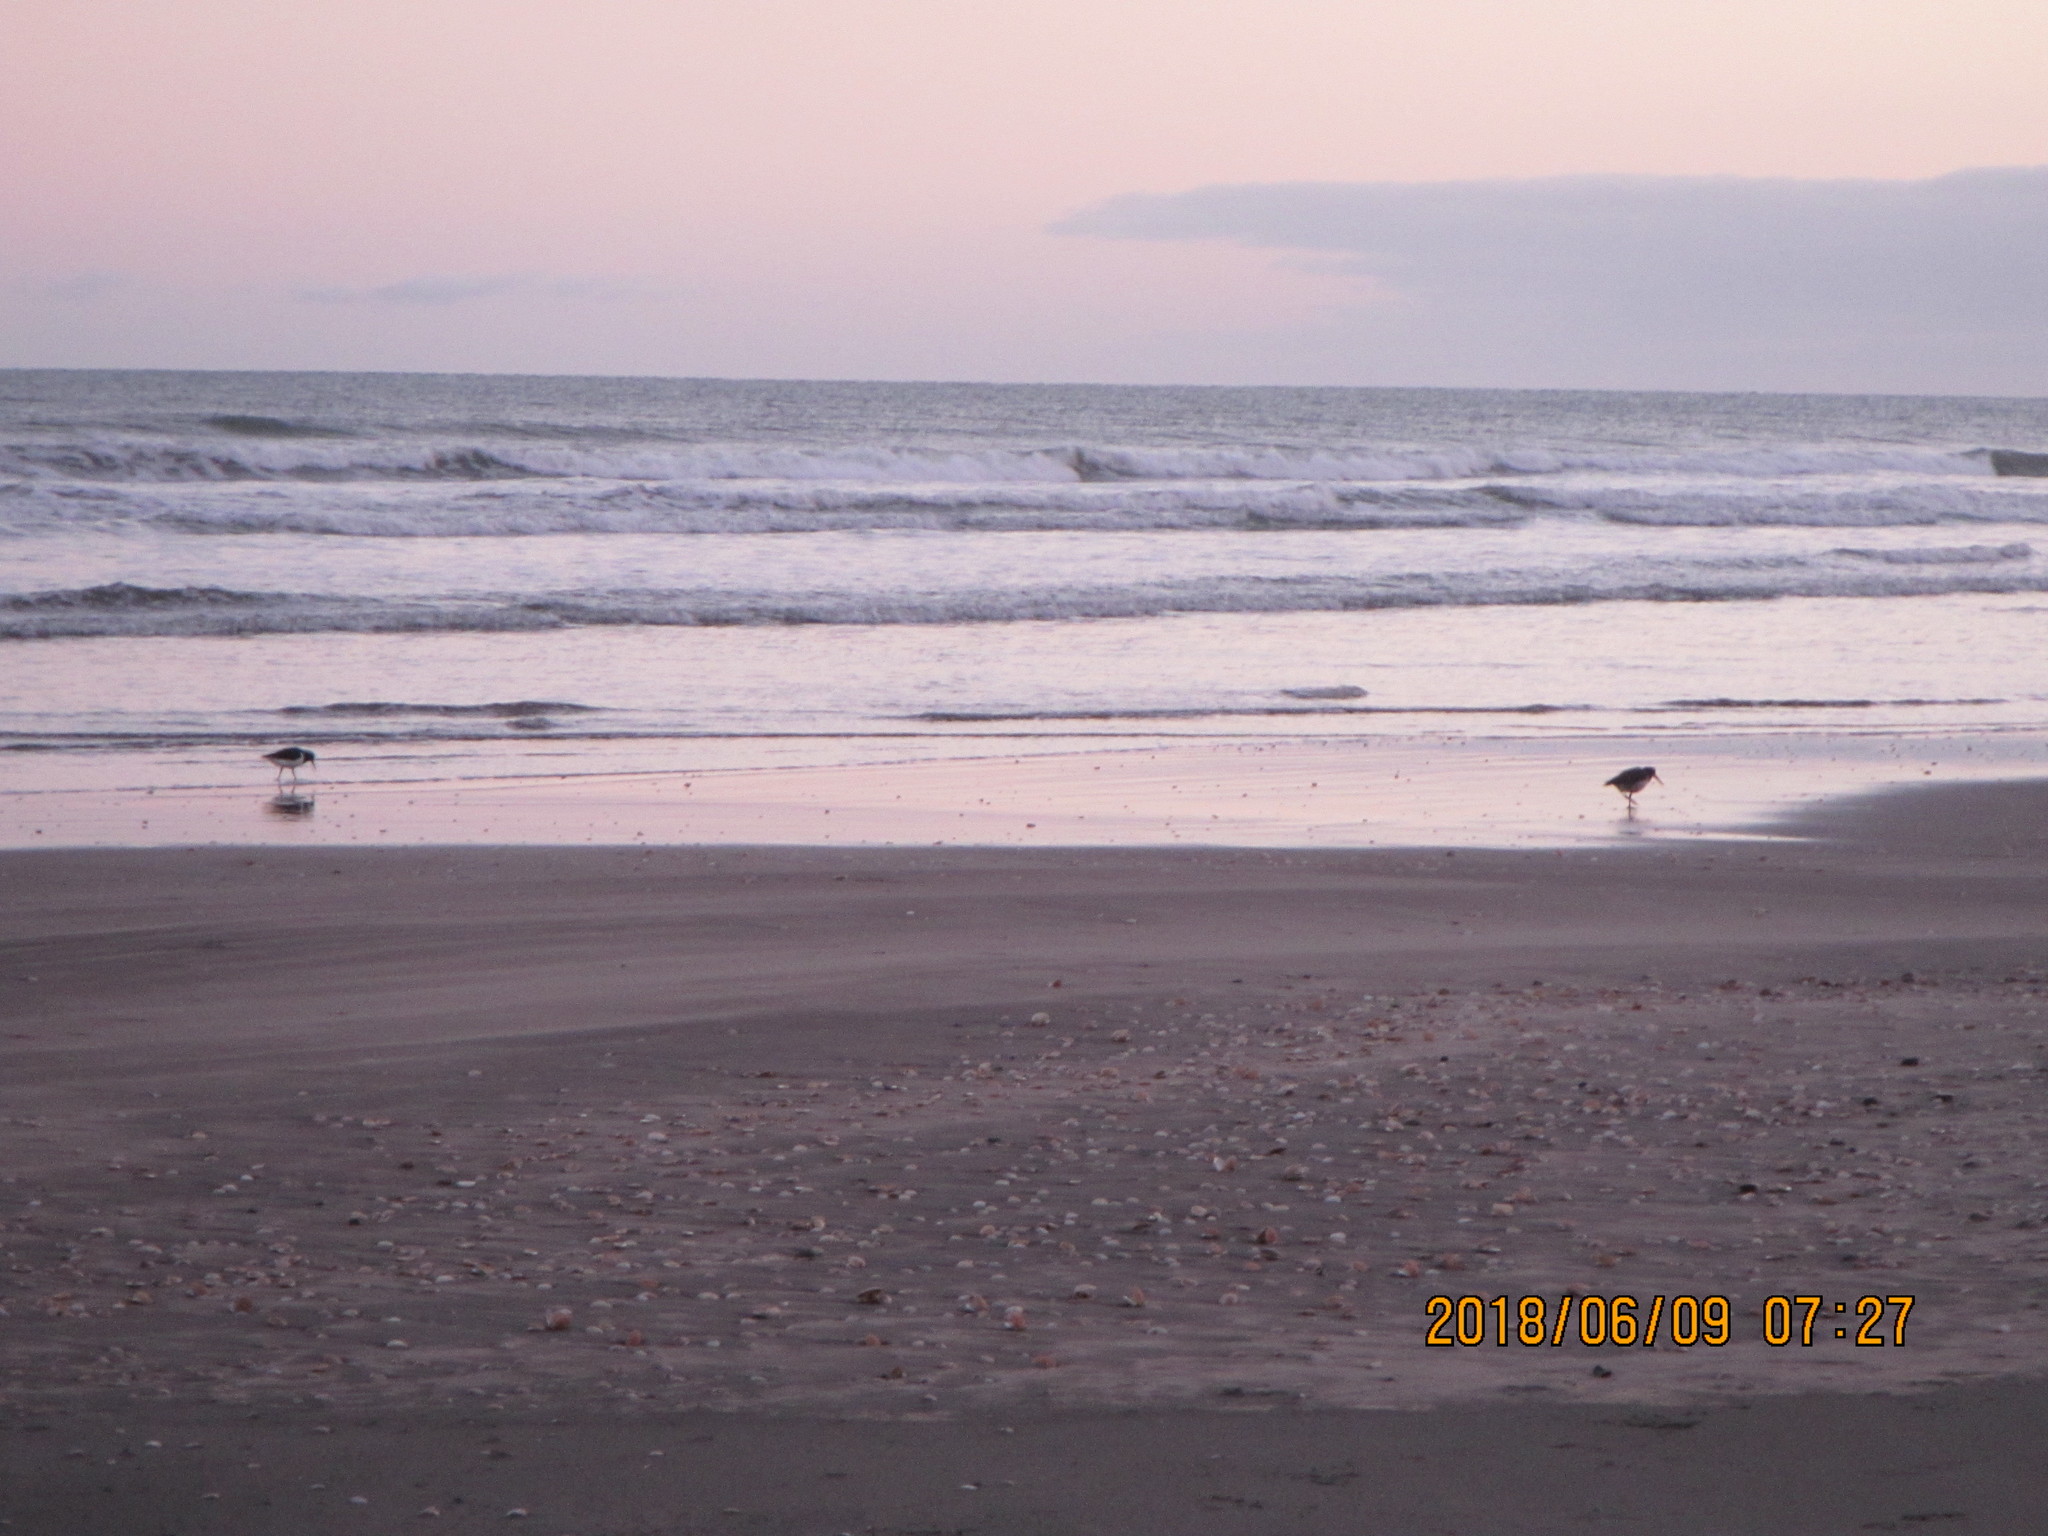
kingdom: Animalia
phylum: Chordata
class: Aves
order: Charadriiformes
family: Haematopodidae
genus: Haematopus
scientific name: Haematopus finschi
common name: South island oystercatcher
